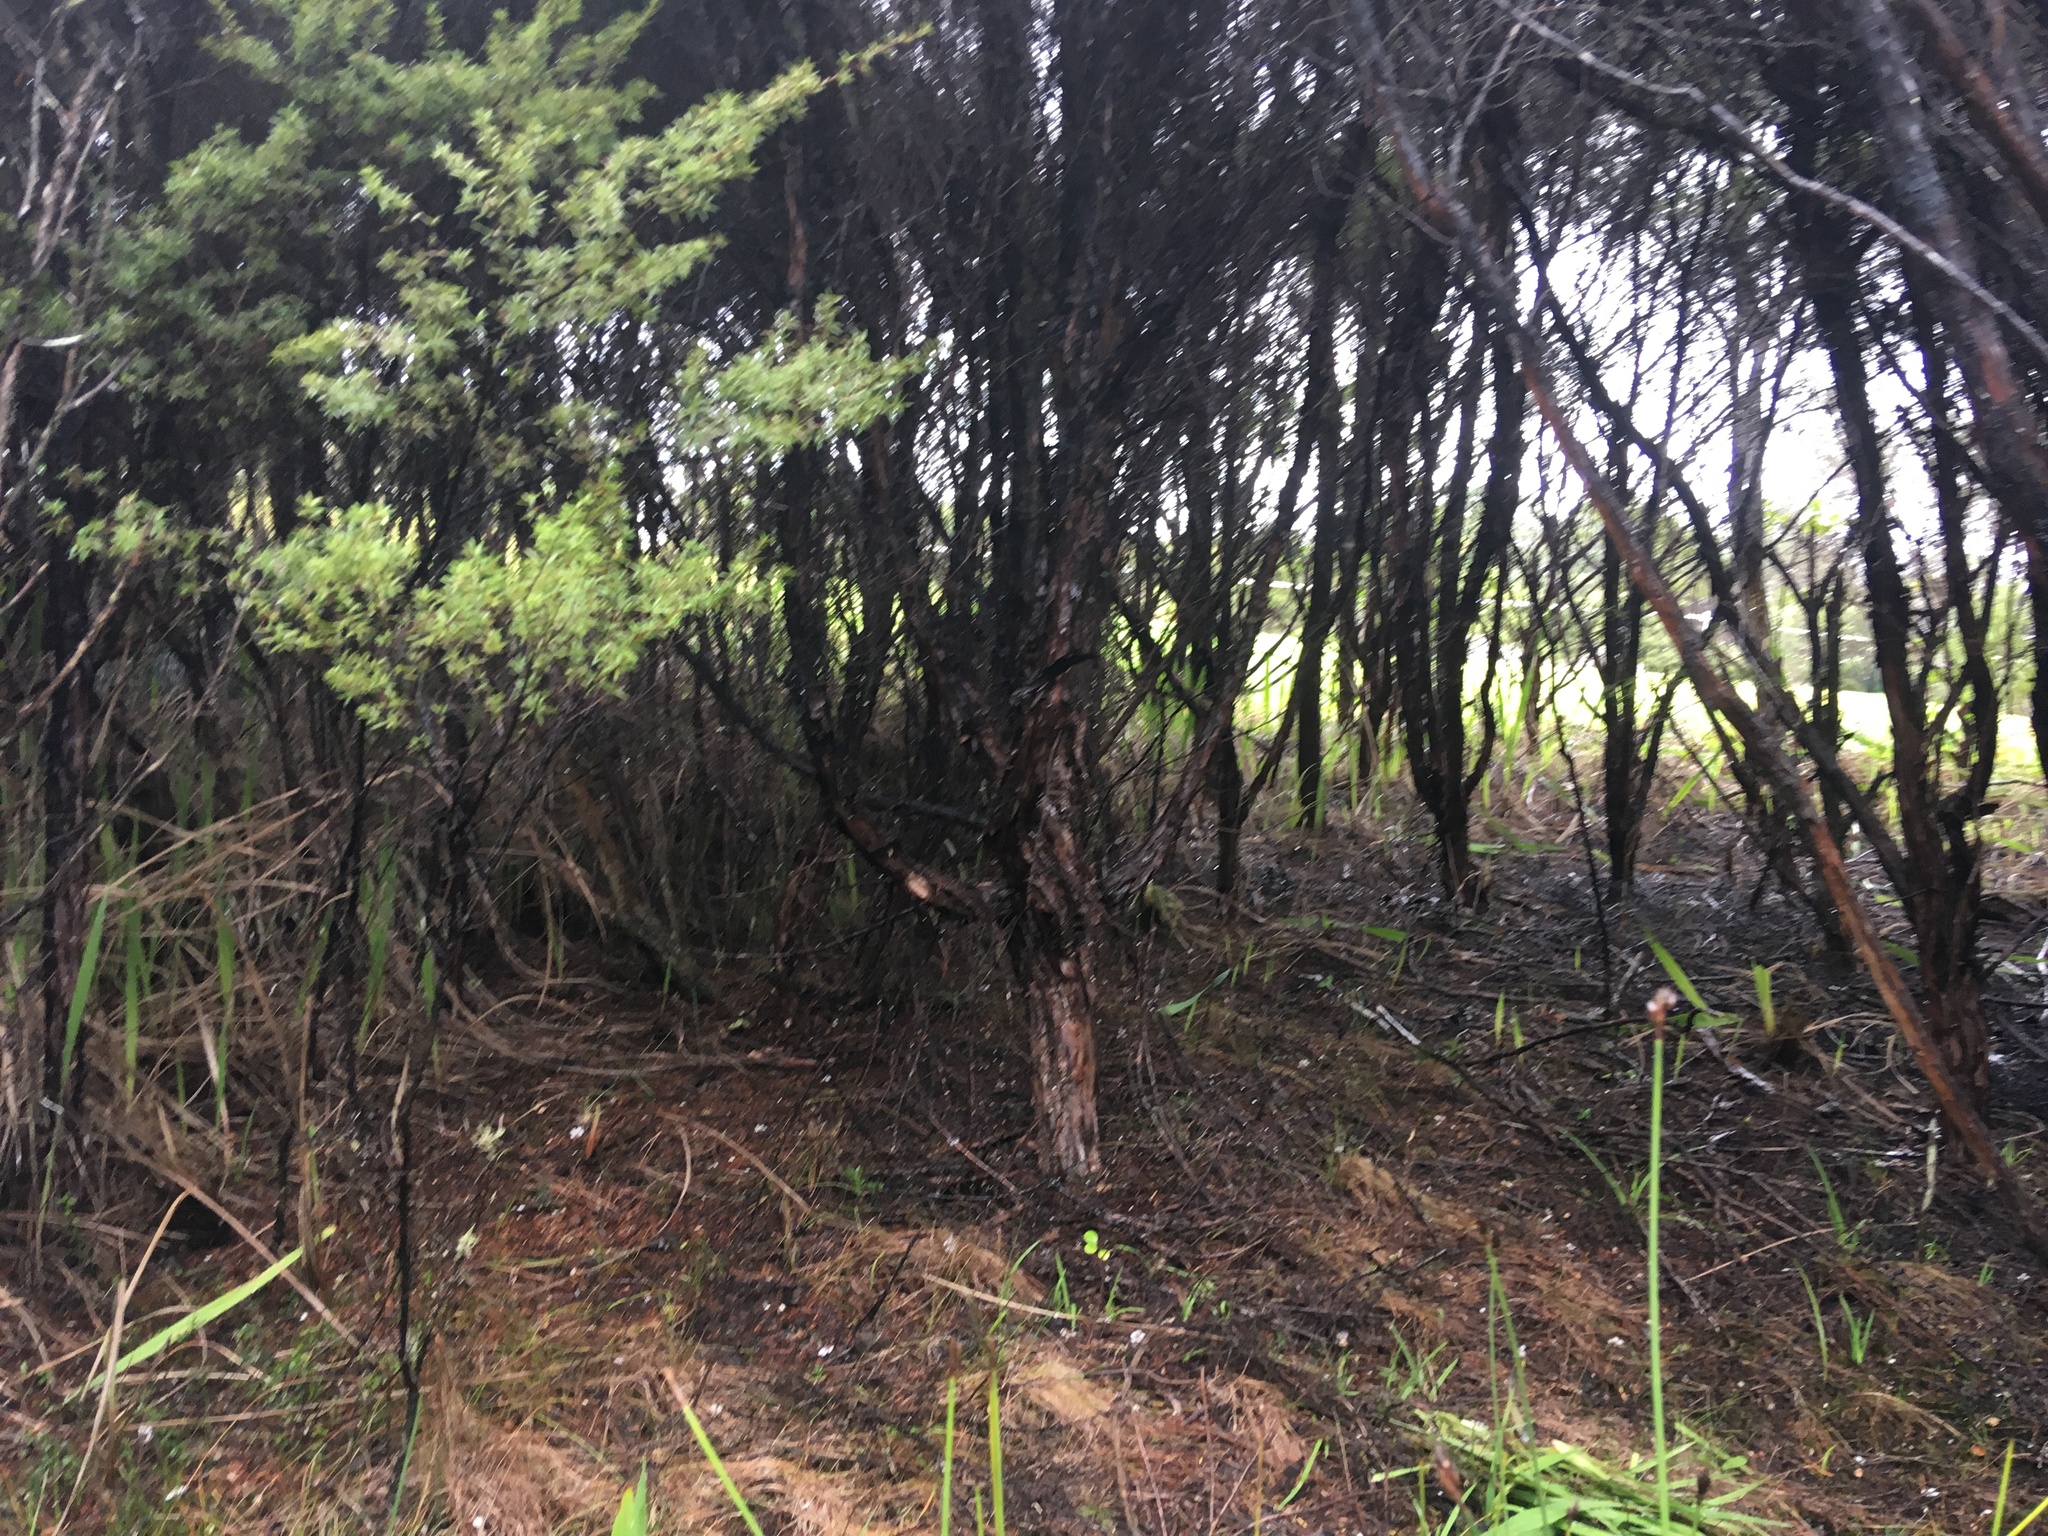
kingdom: Plantae
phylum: Tracheophyta
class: Liliopsida
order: Poales
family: Cyperaceae
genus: Lepidosperma
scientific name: Lepidosperma australe
